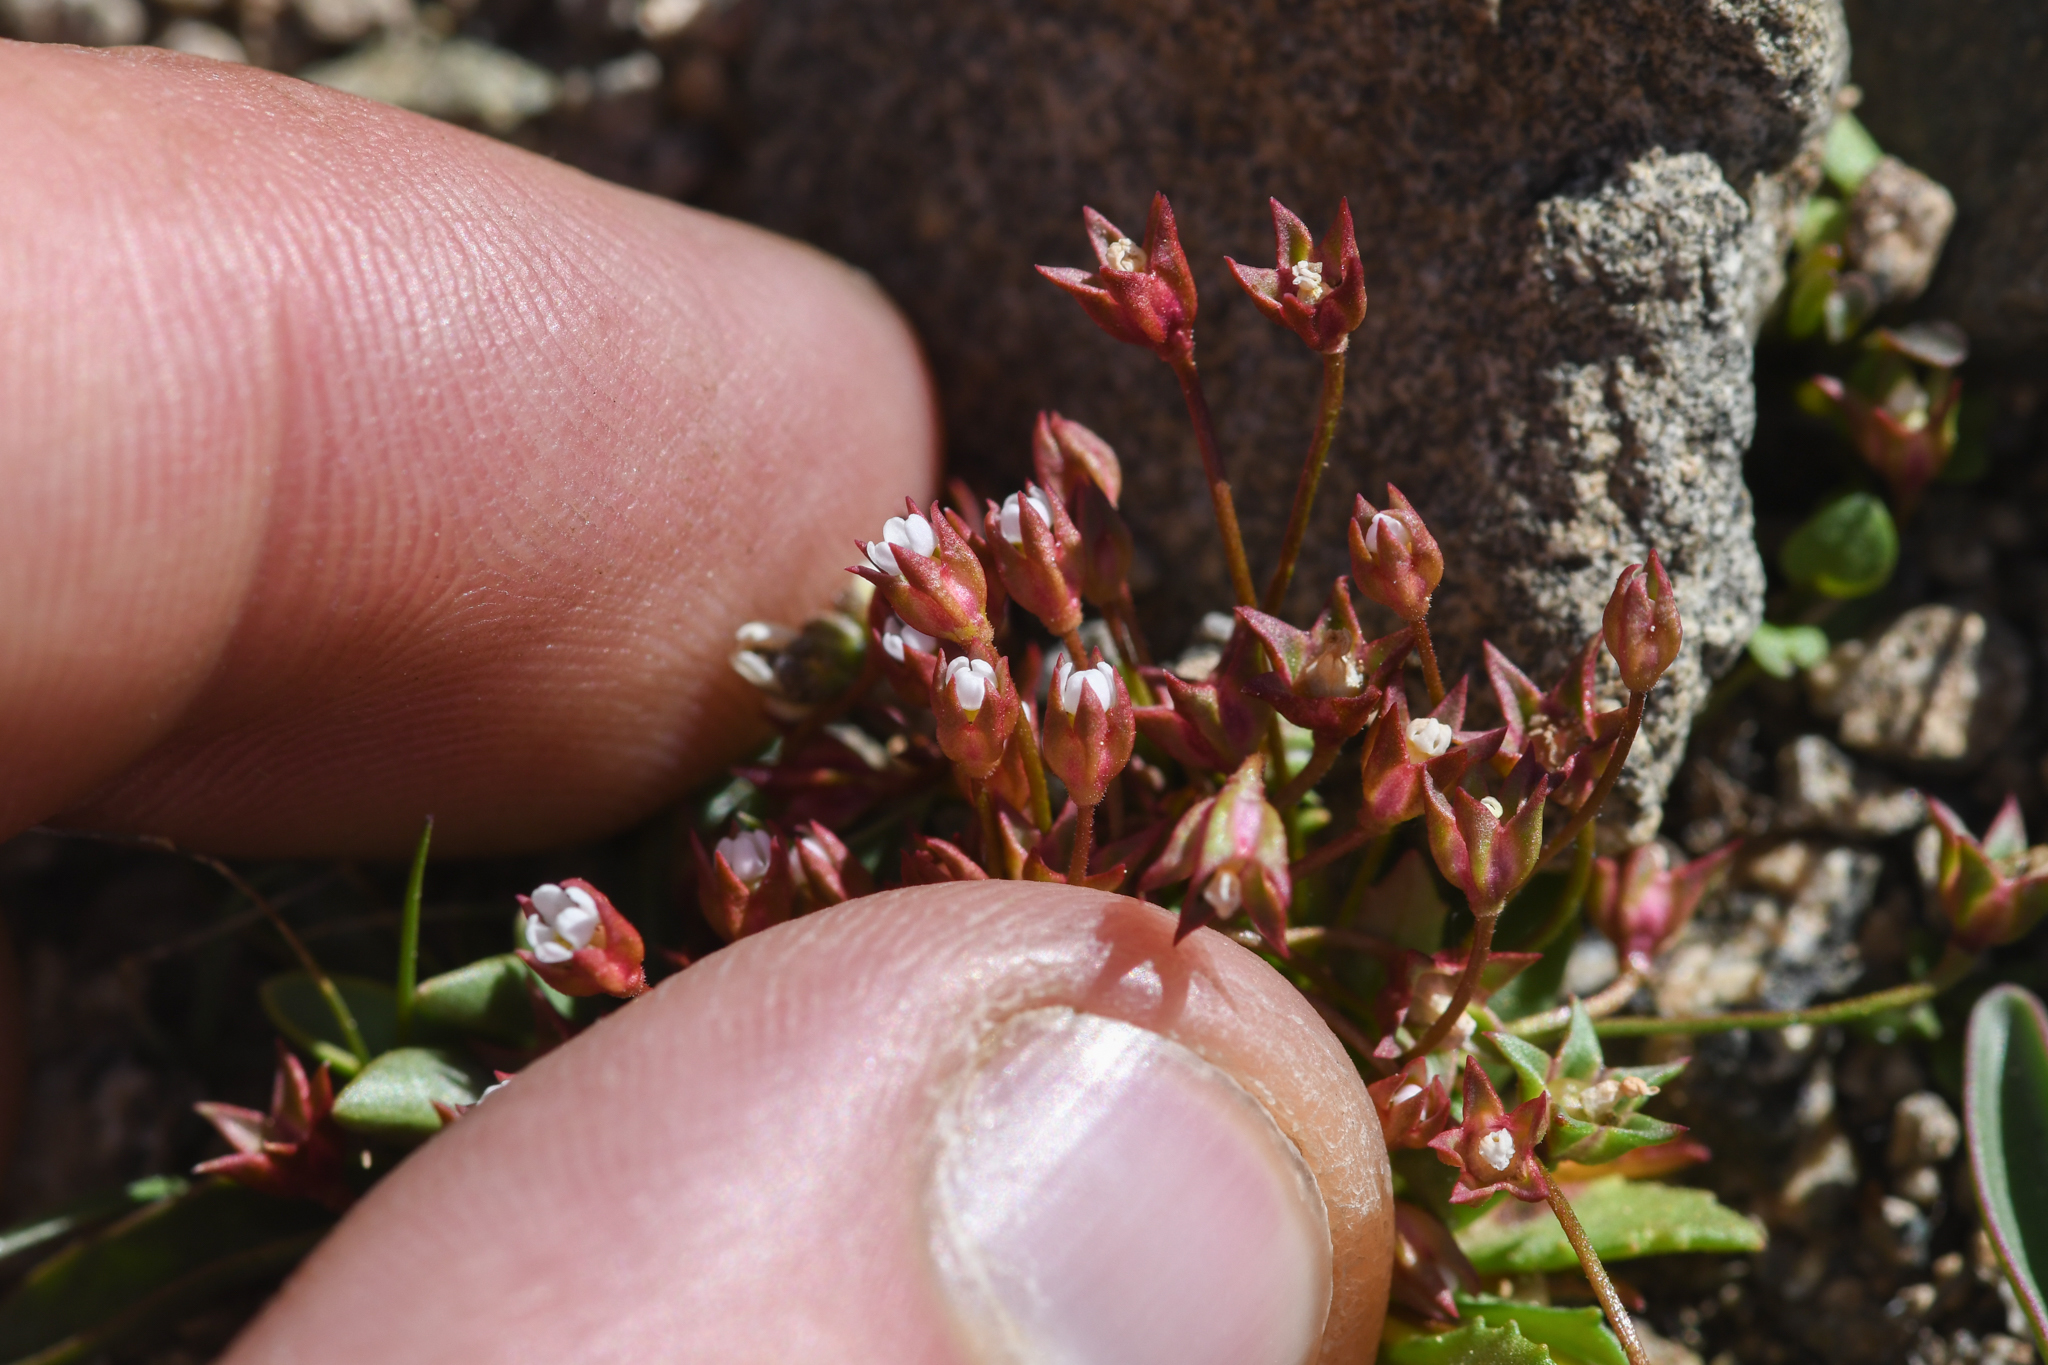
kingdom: Plantae
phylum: Tracheophyta
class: Magnoliopsida
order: Ericales
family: Primulaceae
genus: Androsace
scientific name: Androsace septentrionalis
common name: Hairy northern fairy-candelabra
